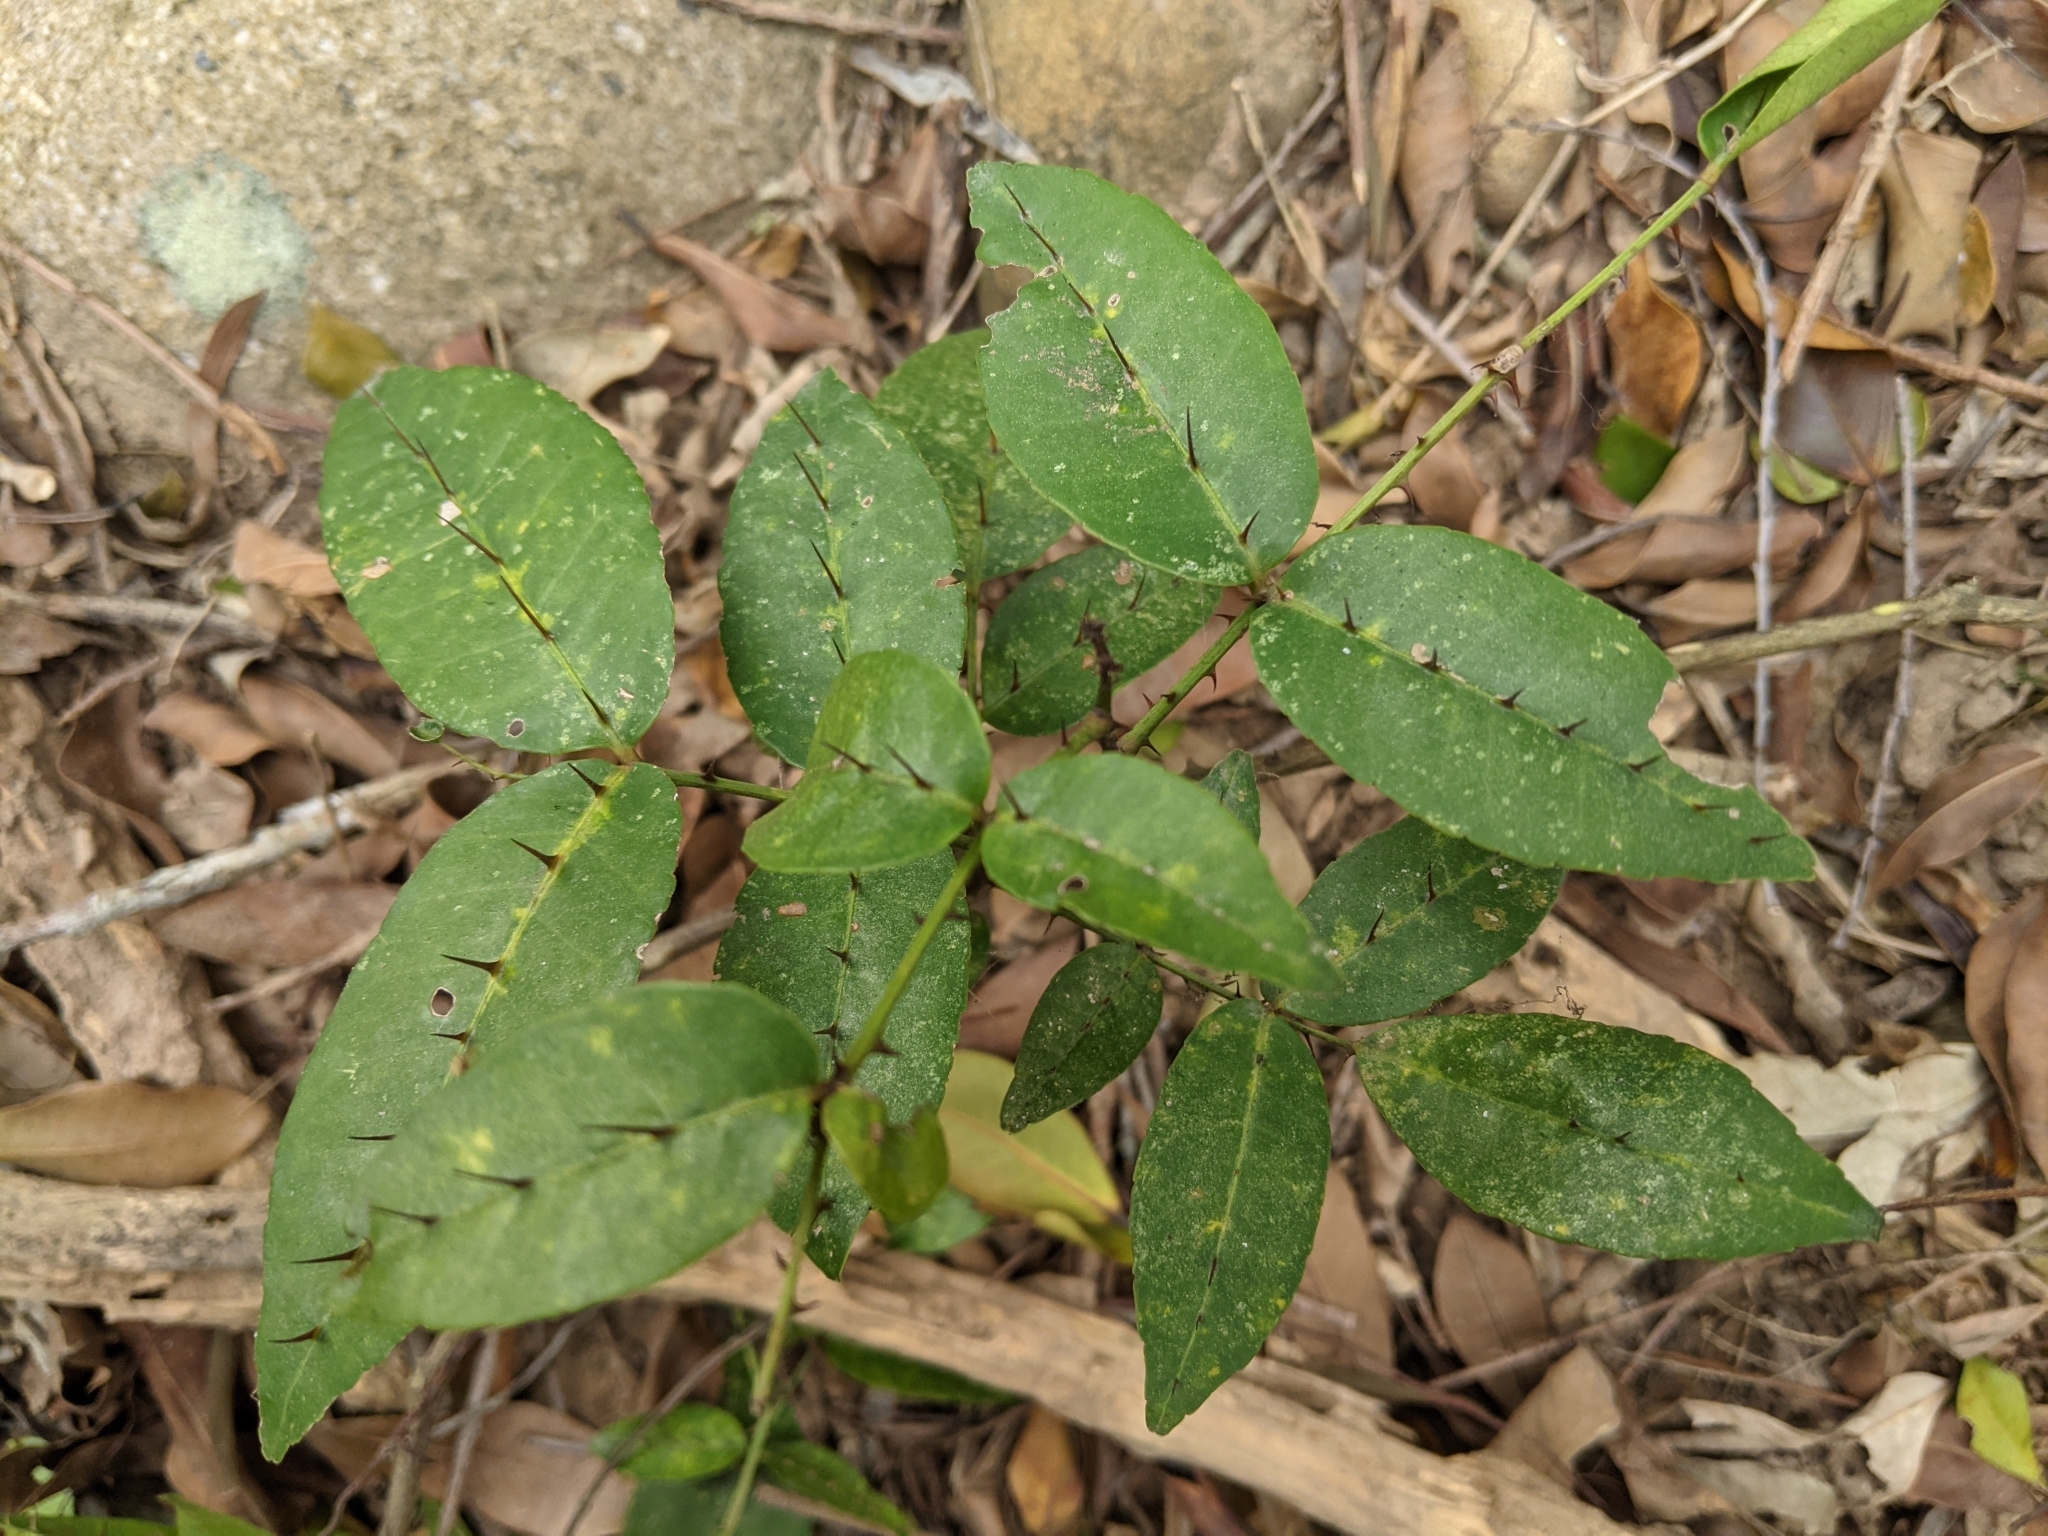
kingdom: Plantae
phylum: Tracheophyta
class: Magnoliopsida
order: Sapindales
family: Rutaceae
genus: Zanthoxylum
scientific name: Zanthoxylum nitidum
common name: Shiny-leaf prickly-ash
